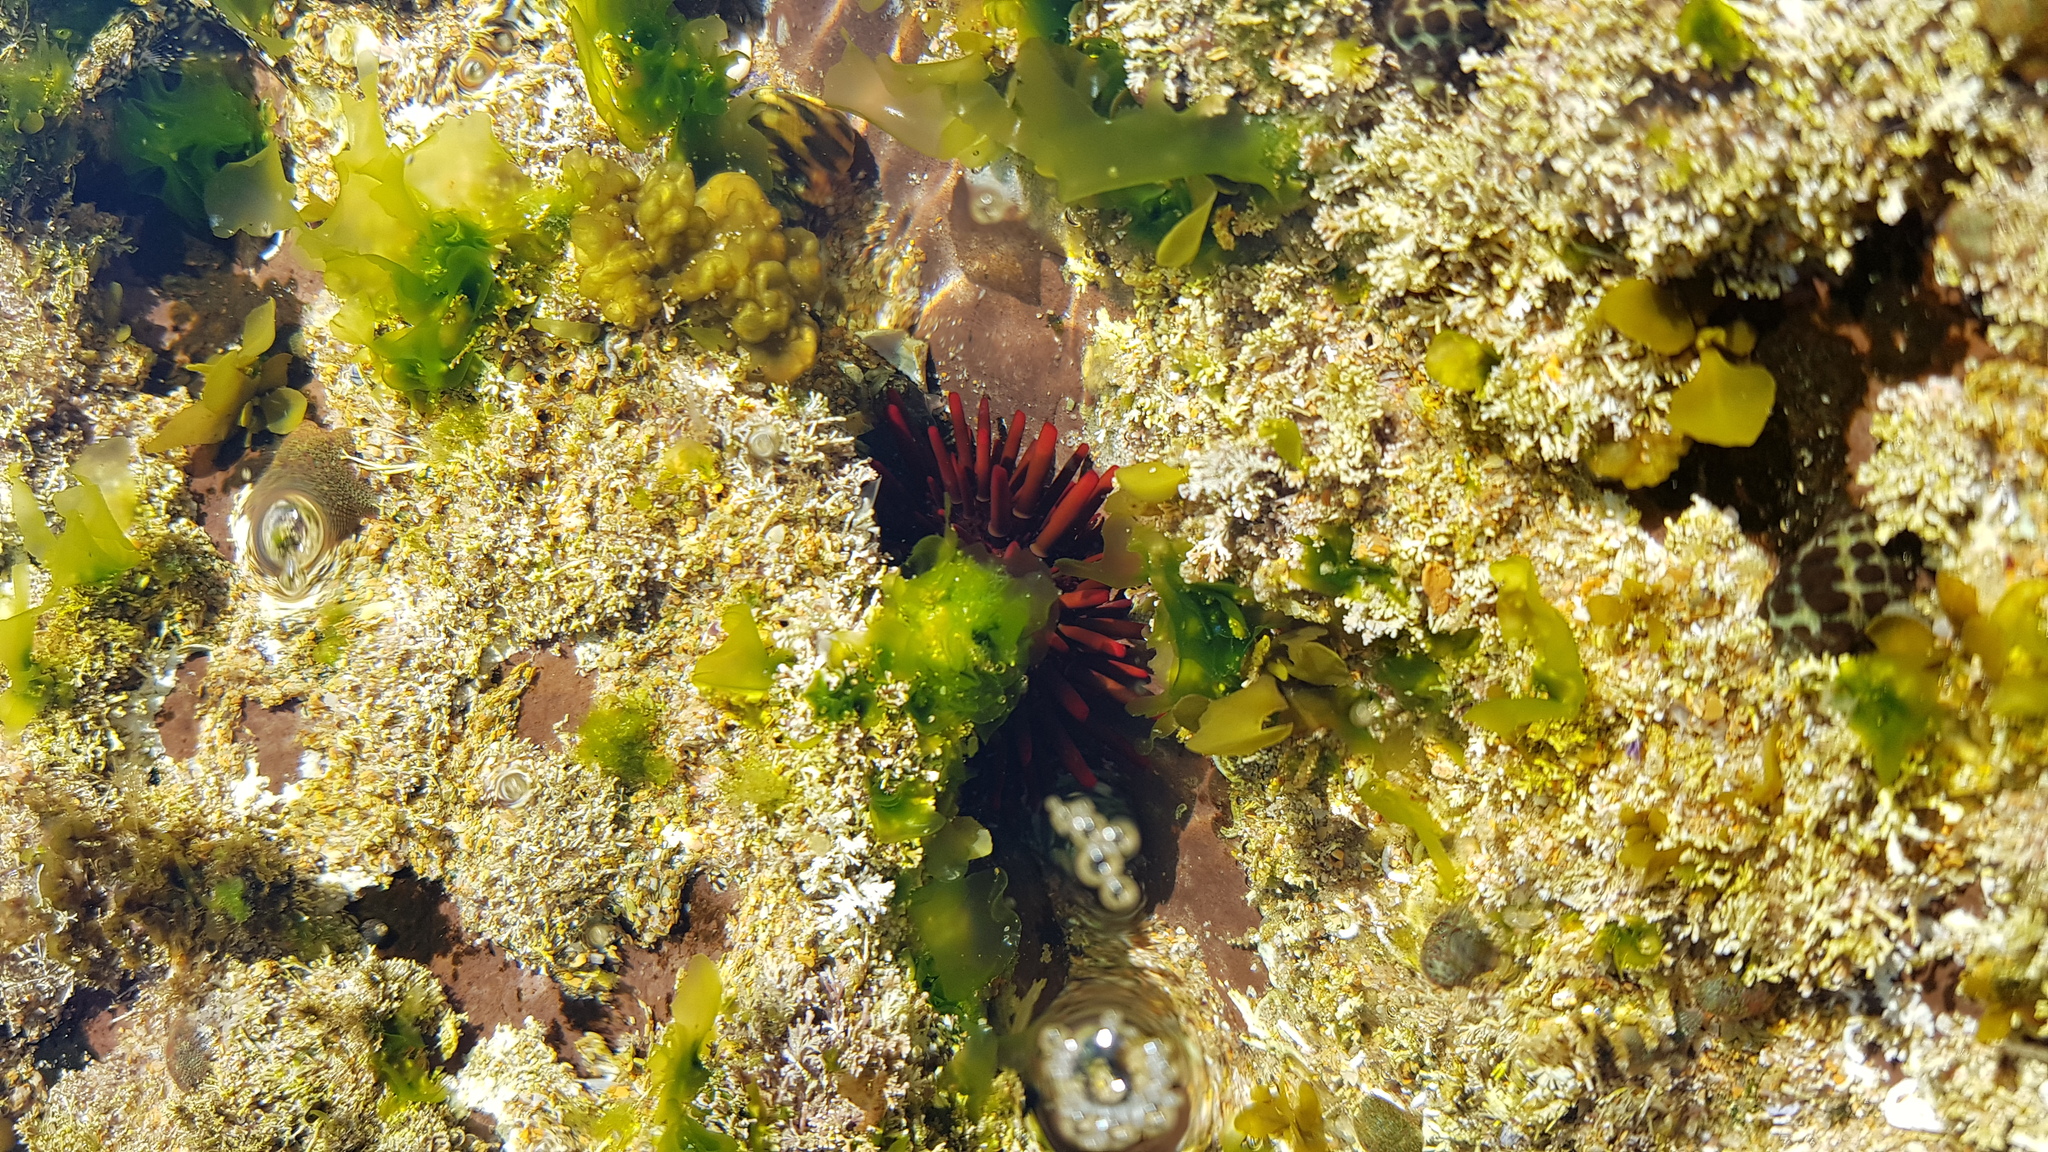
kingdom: Animalia
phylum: Echinodermata
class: Echinoidea
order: Camarodonta
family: Echinometridae
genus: Heliocidaris
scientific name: Heliocidaris tuberculata
